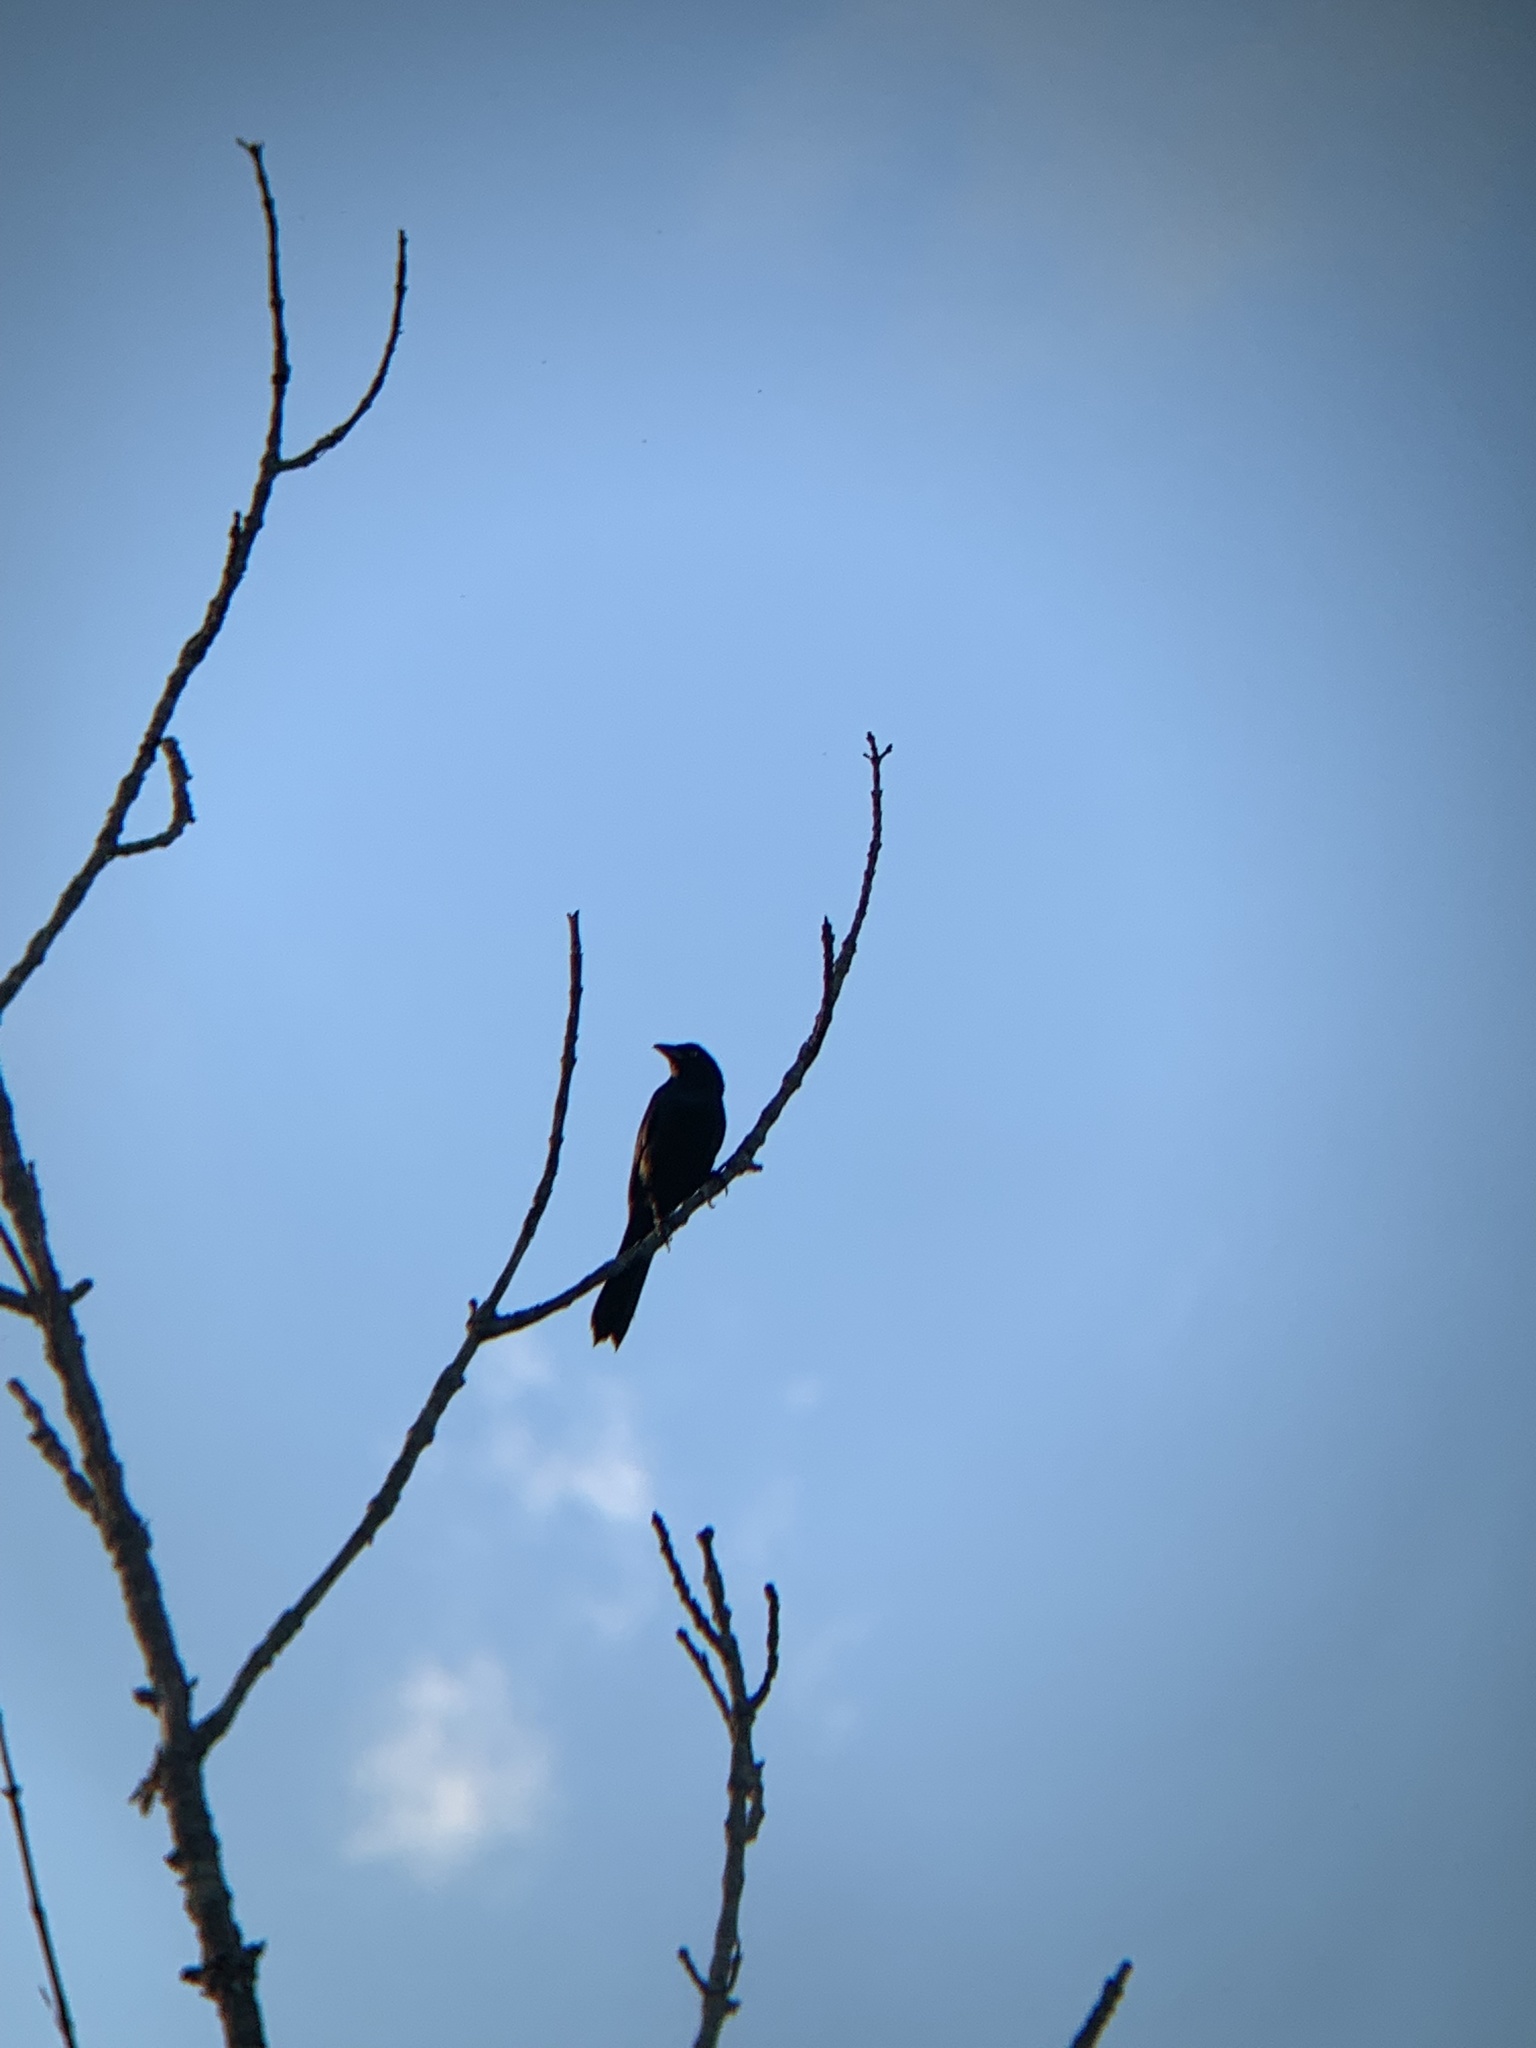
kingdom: Animalia
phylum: Chordata
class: Aves
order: Passeriformes
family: Icteridae
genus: Quiscalus
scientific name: Quiscalus quiscula
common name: Common grackle
